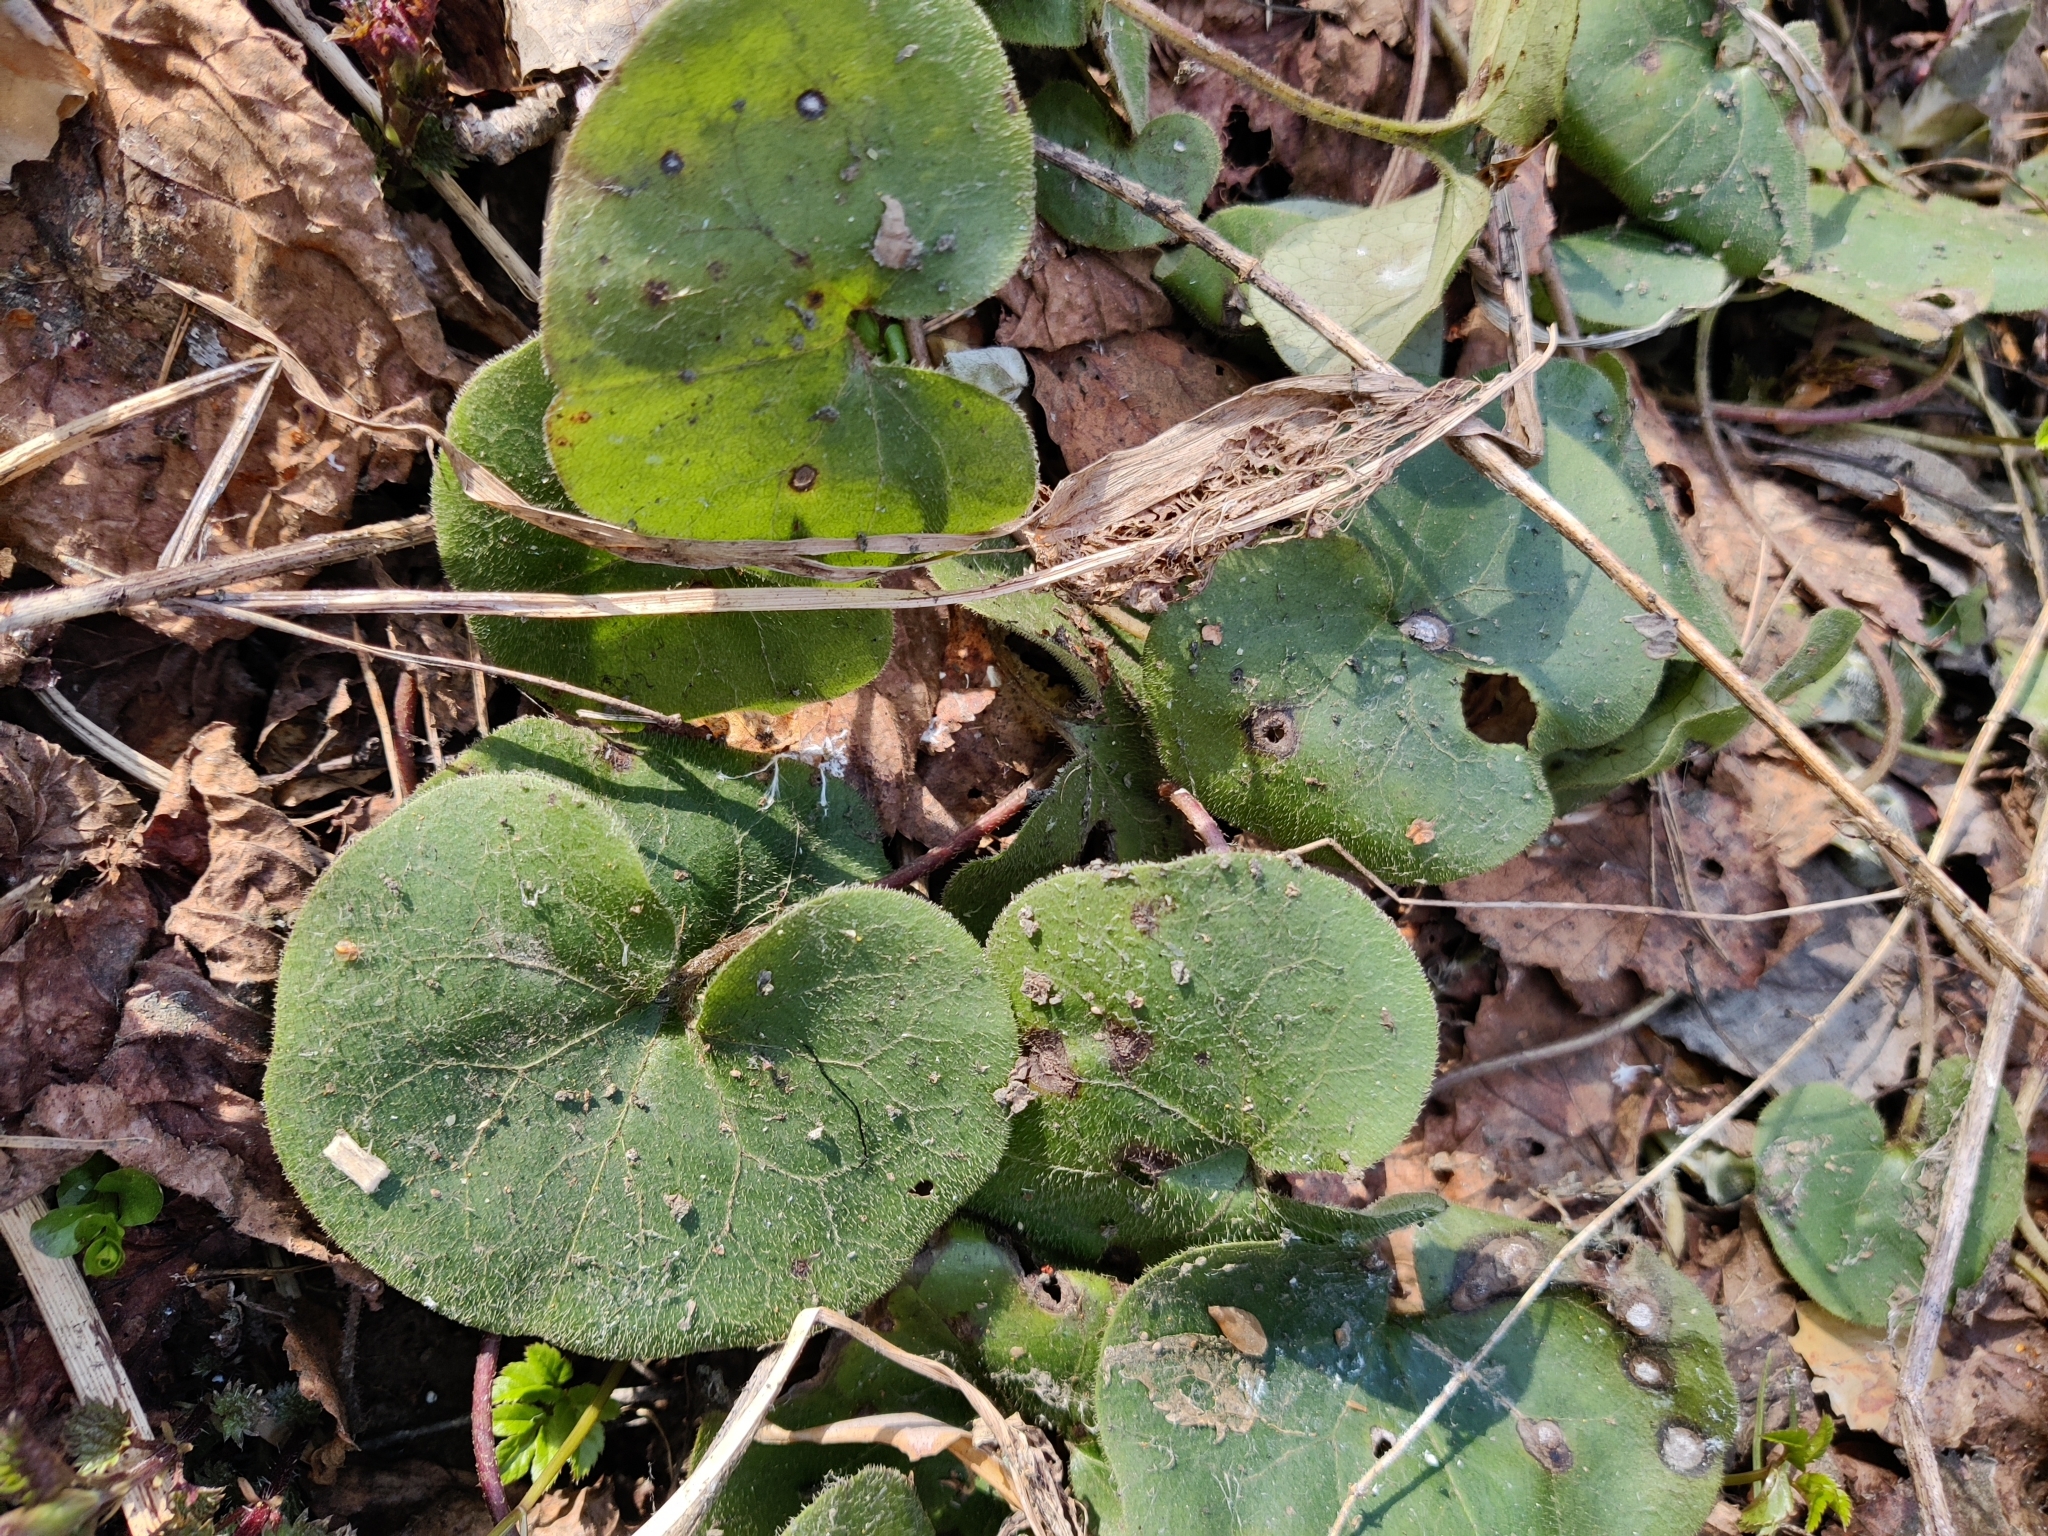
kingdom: Plantae
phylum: Tracheophyta
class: Magnoliopsida
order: Piperales
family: Aristolochiaceae
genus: Asarum
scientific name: Asarum europaeum
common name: Asarabacca
